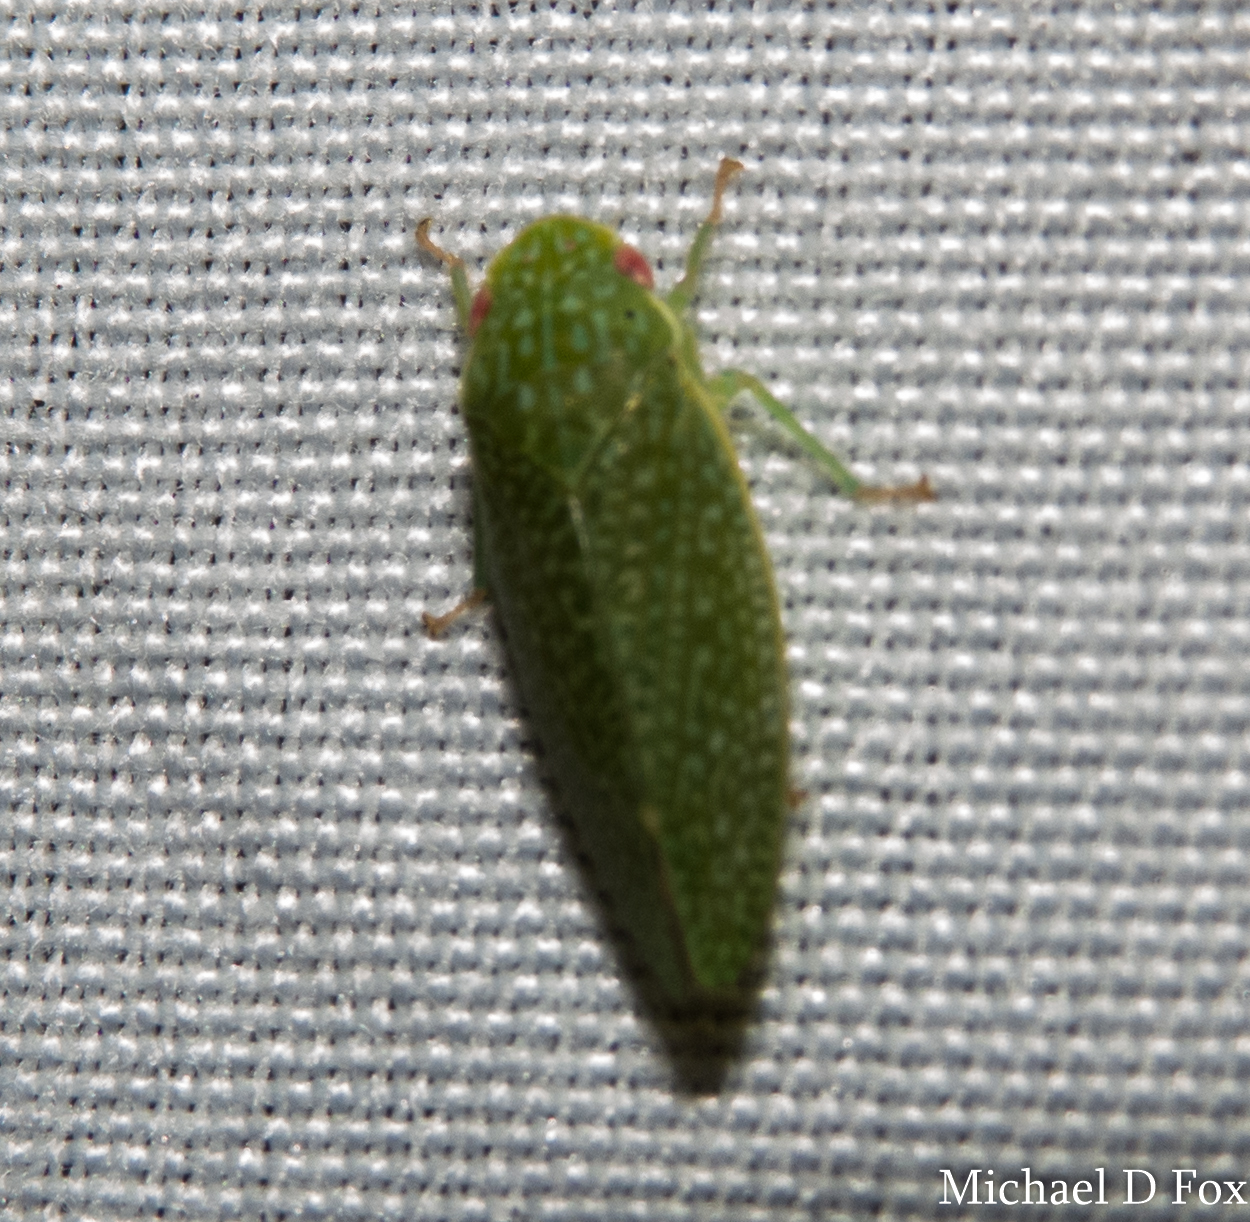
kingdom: Animalia
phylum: Arthropoda
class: Insecta
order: Hemiptera
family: Cicadellidae
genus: Rugosana
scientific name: Rugosana querci
